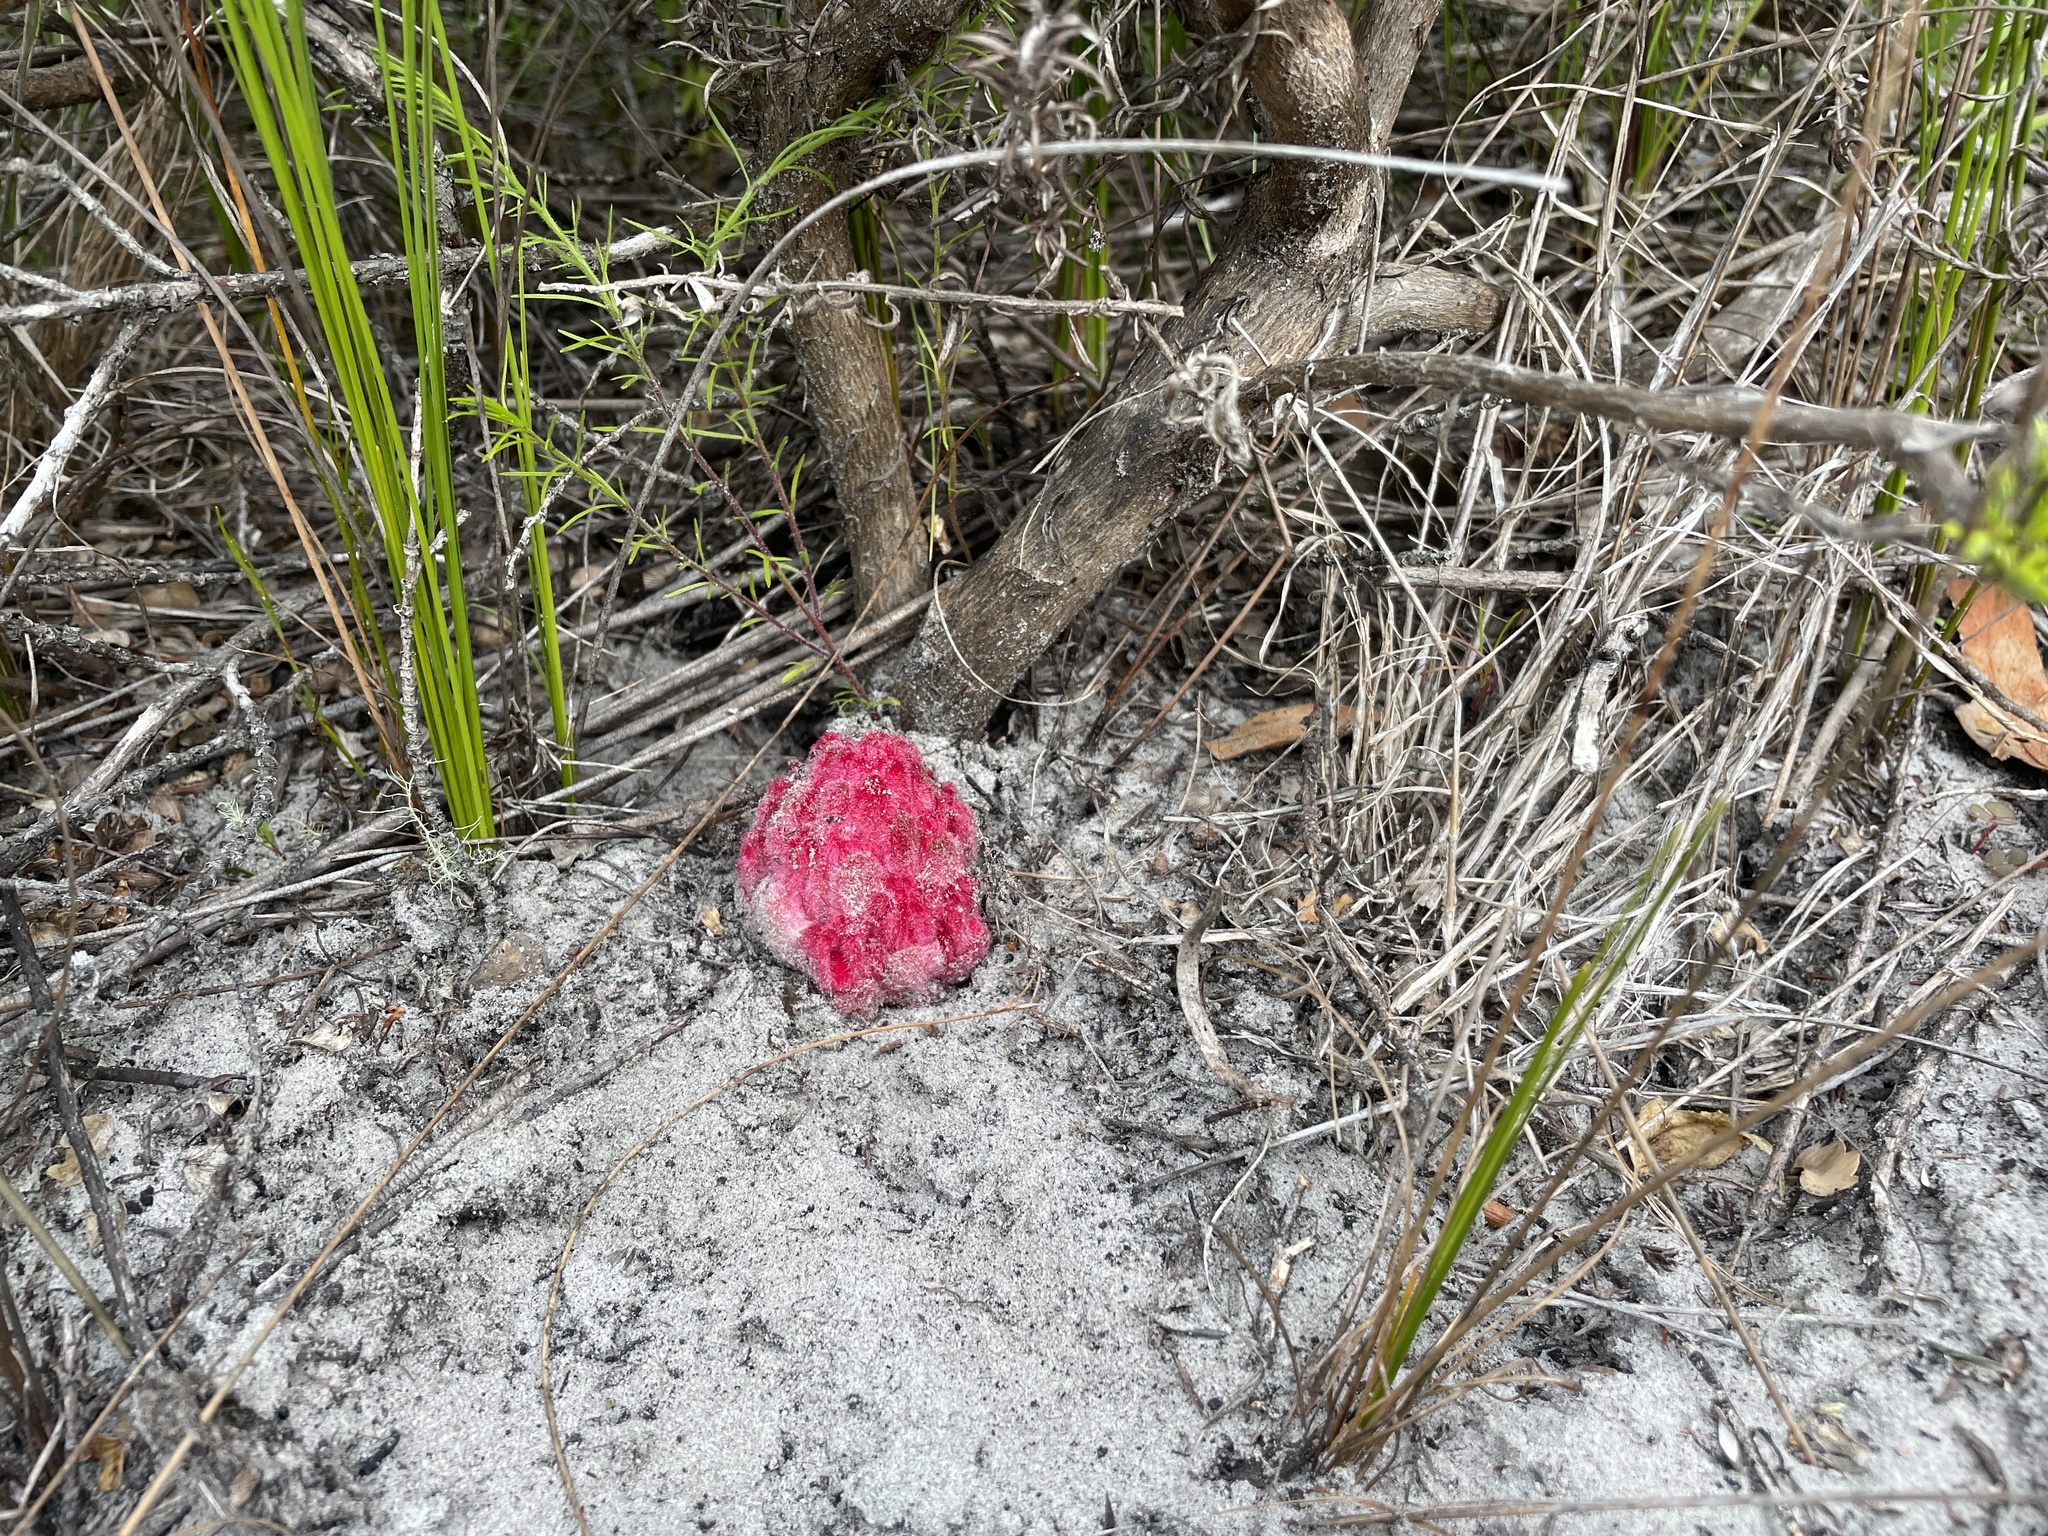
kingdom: Plantae
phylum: Tracheophyta
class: Magnoliopsida
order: Lamiales
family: Orobanchaceae
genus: Hyobanche
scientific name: Hyobanche sanguinea
